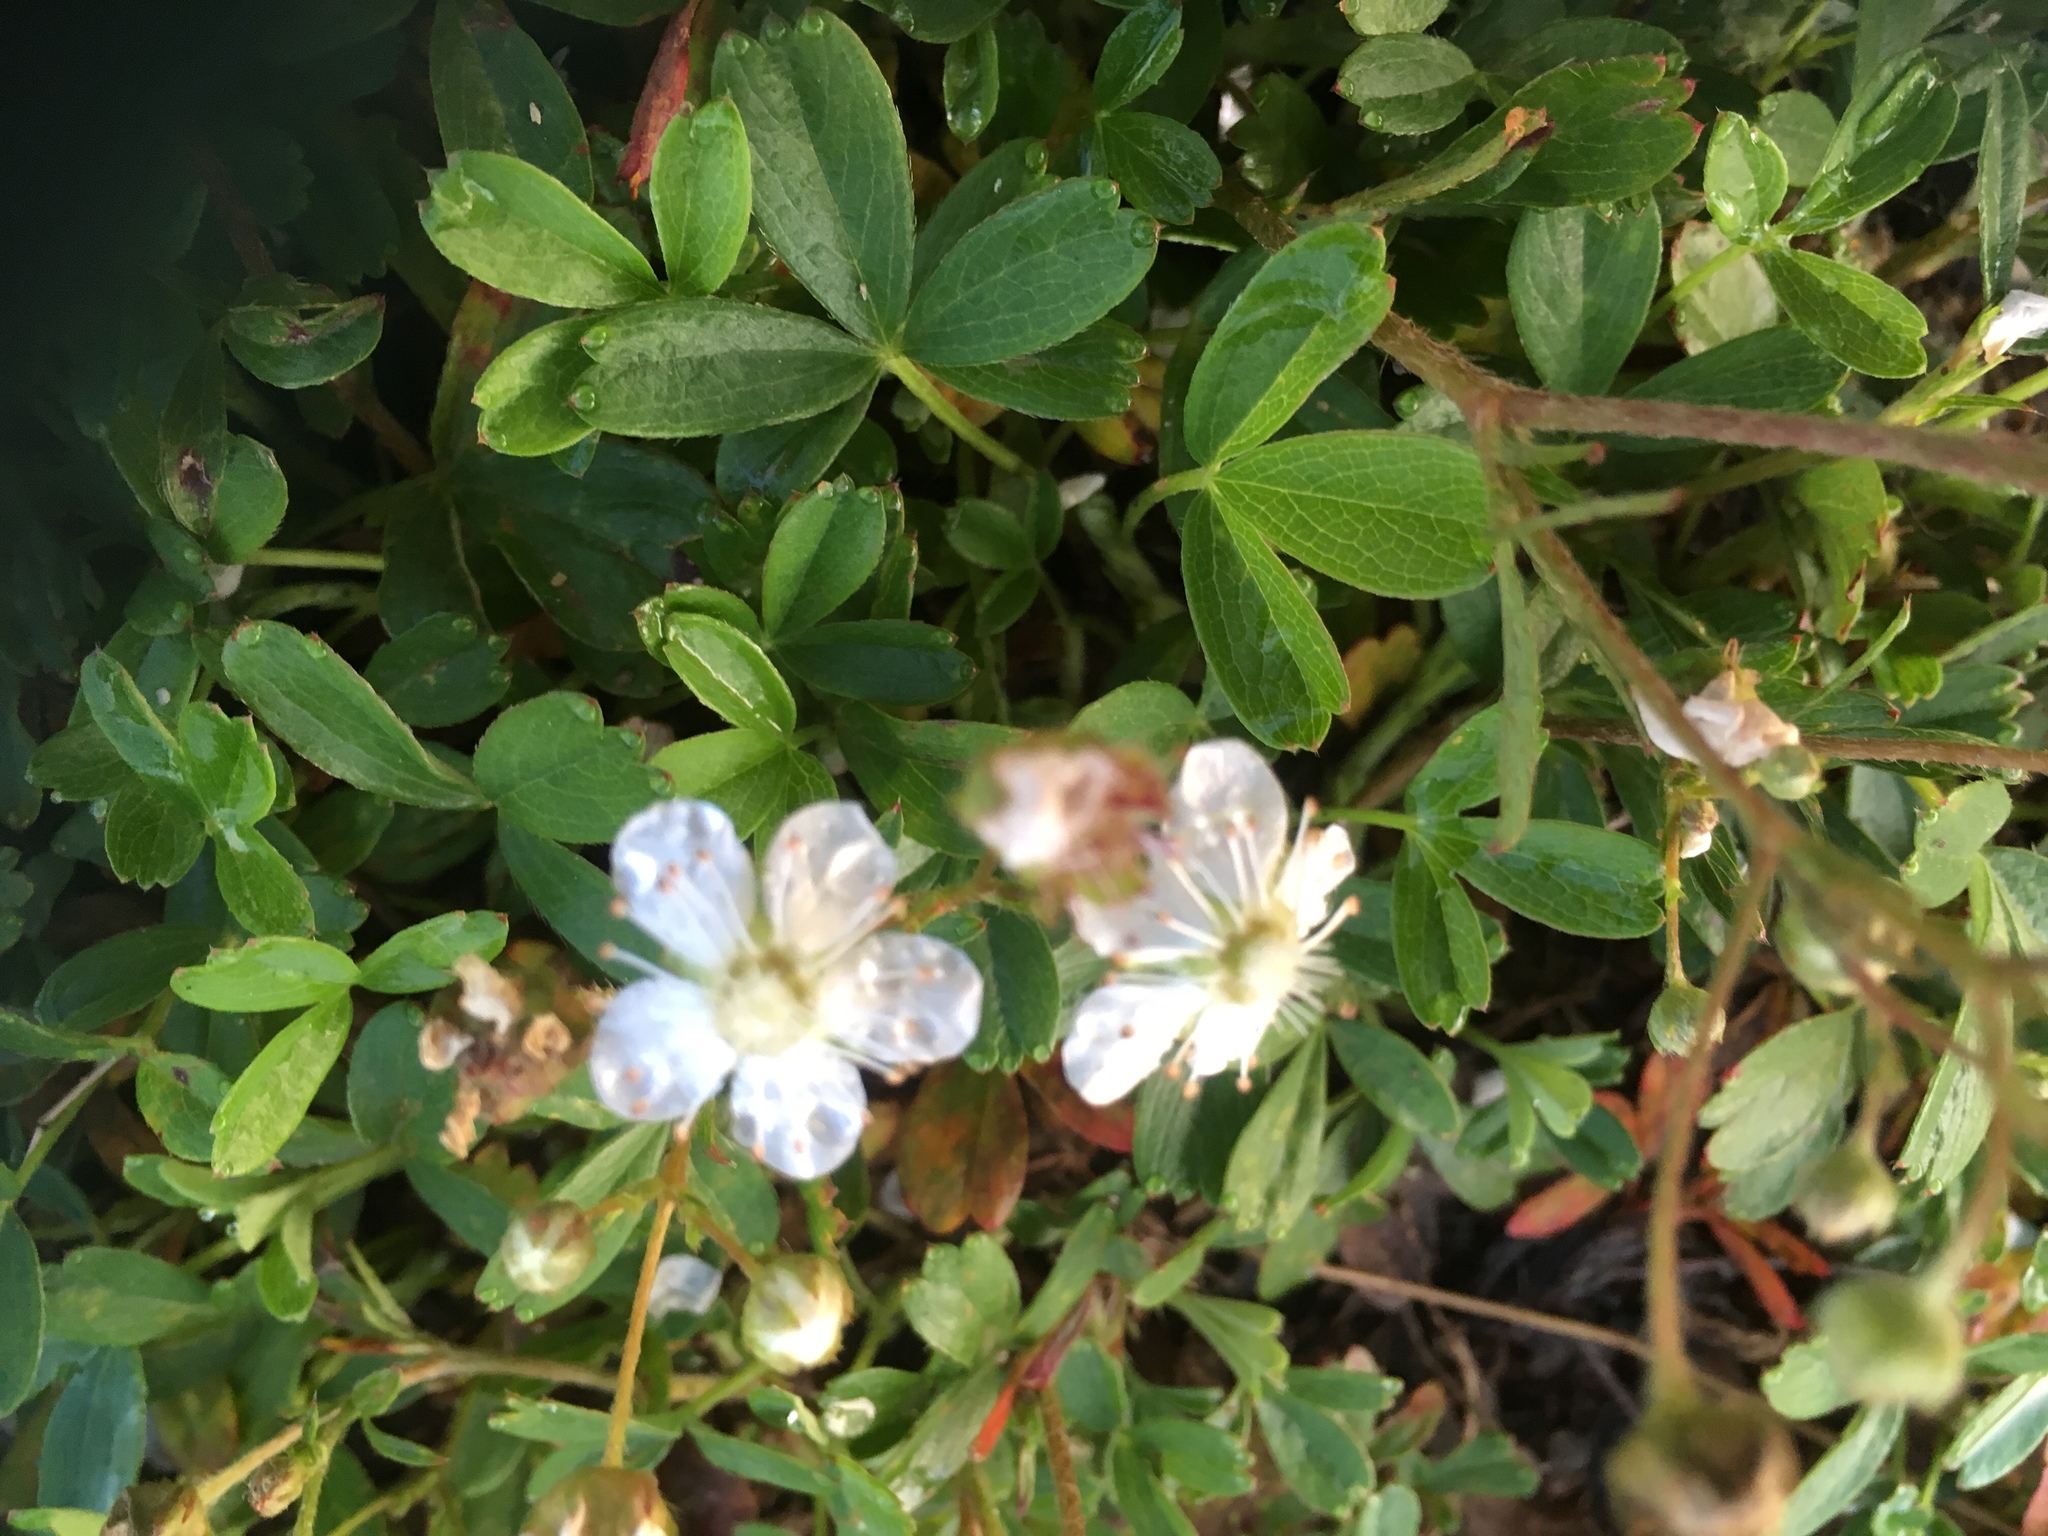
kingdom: Plantae
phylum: Tracheophyta
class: Magnoliopsida
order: Rosales
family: Rosaceae
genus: Sibbaldia
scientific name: Sibbaldia tridentata
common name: Three-toothed cinquefoil
